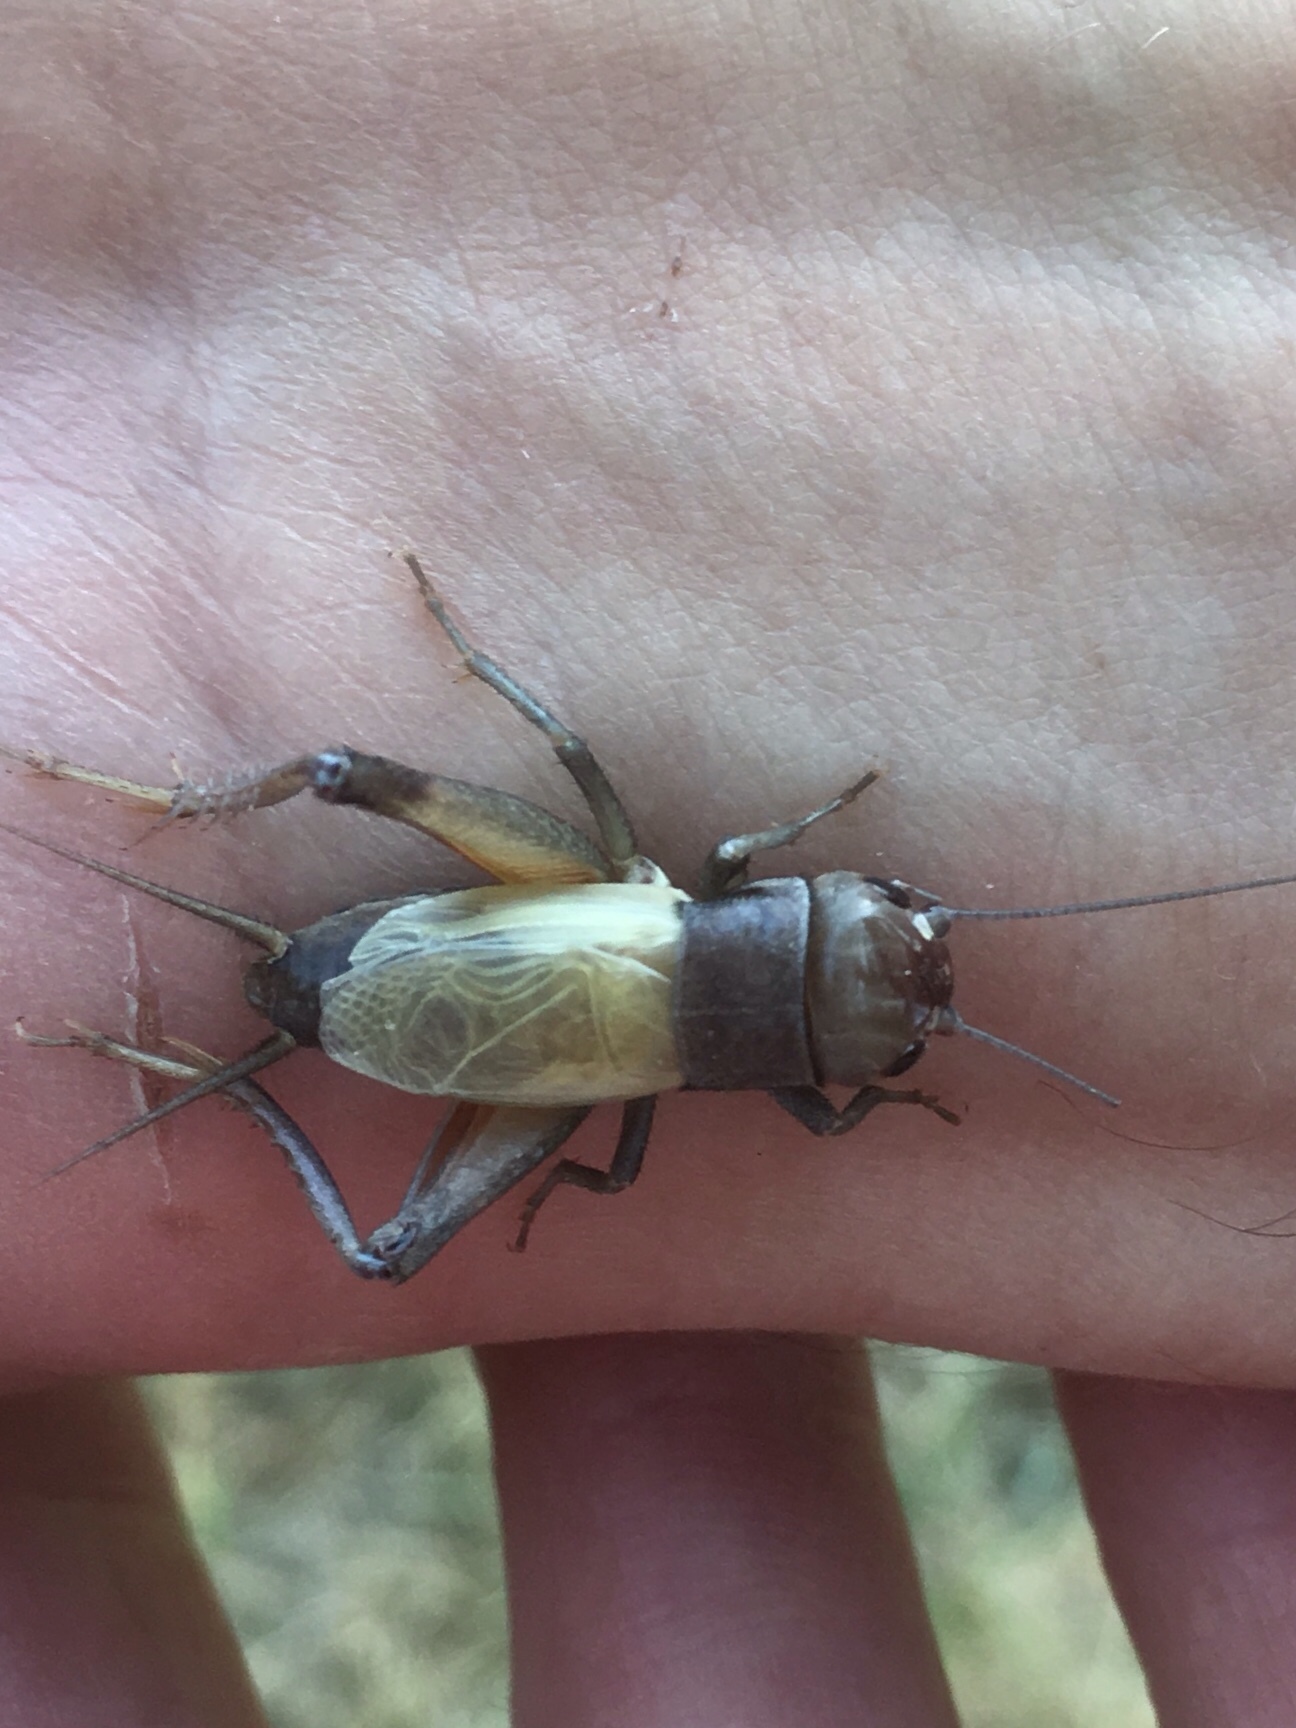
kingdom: Animalia
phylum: Arthropoda
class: Insecta
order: Orthoptera
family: Gryllidae
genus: Gryllus
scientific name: Gryllus pennsylvanicus
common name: Fall field cricket
